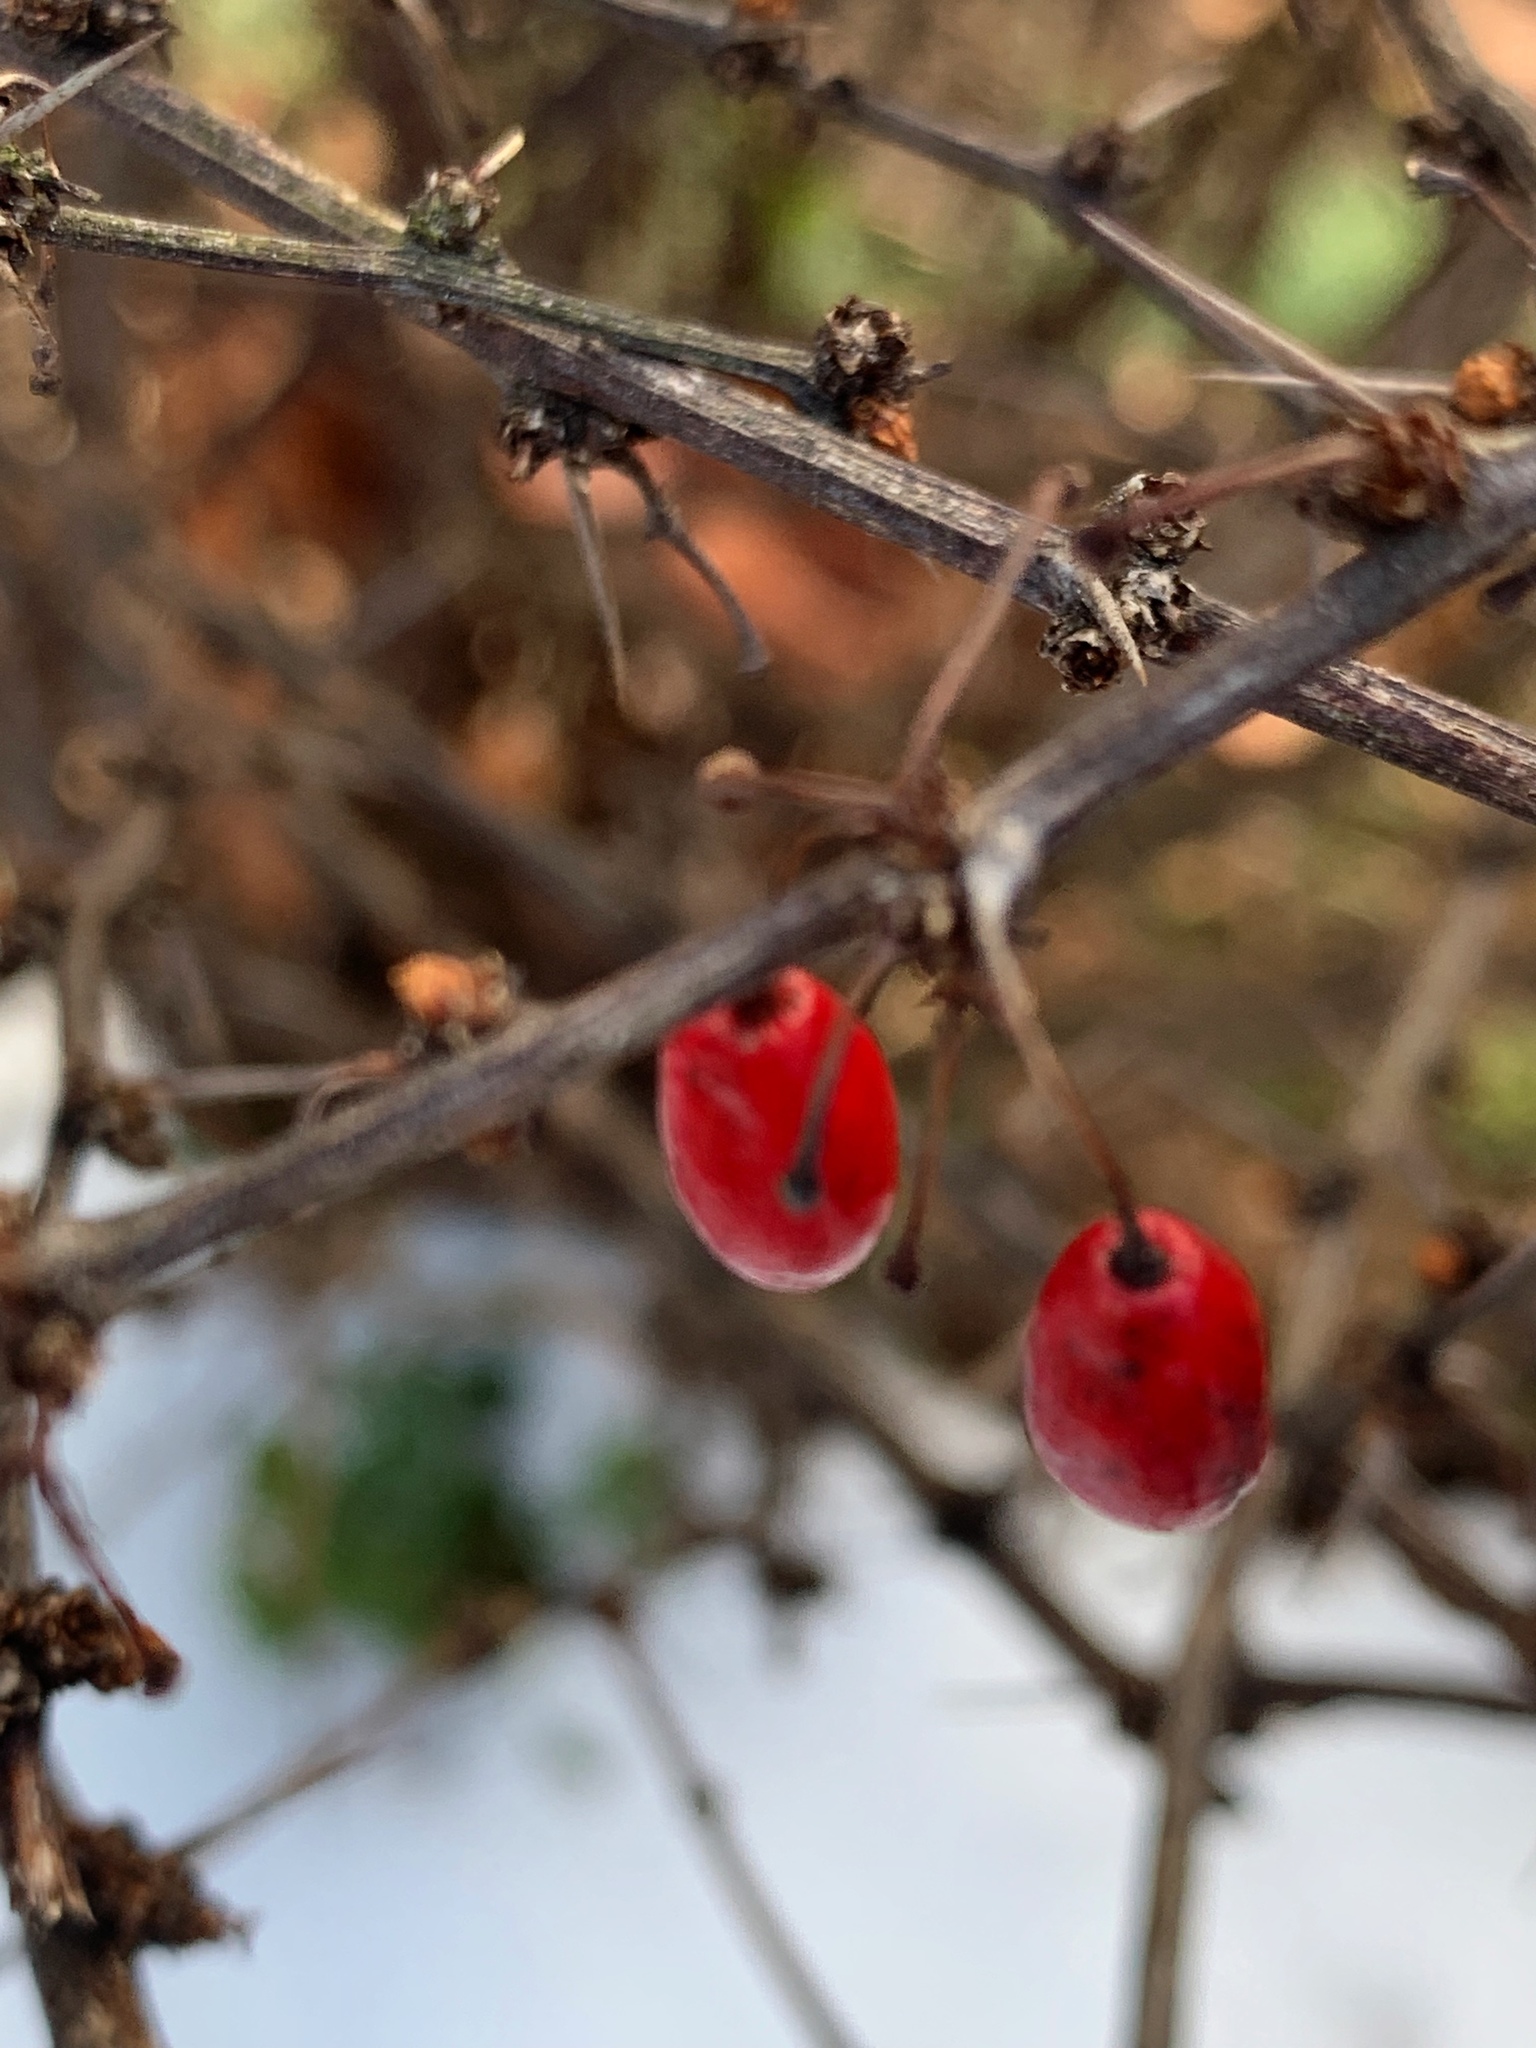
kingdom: Plantae
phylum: Tracheophyta
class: Magnoliopsida
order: Ranunculales
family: Berberidaceae
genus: Berberis
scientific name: Berberis thunbergii
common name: Japanese barberry
